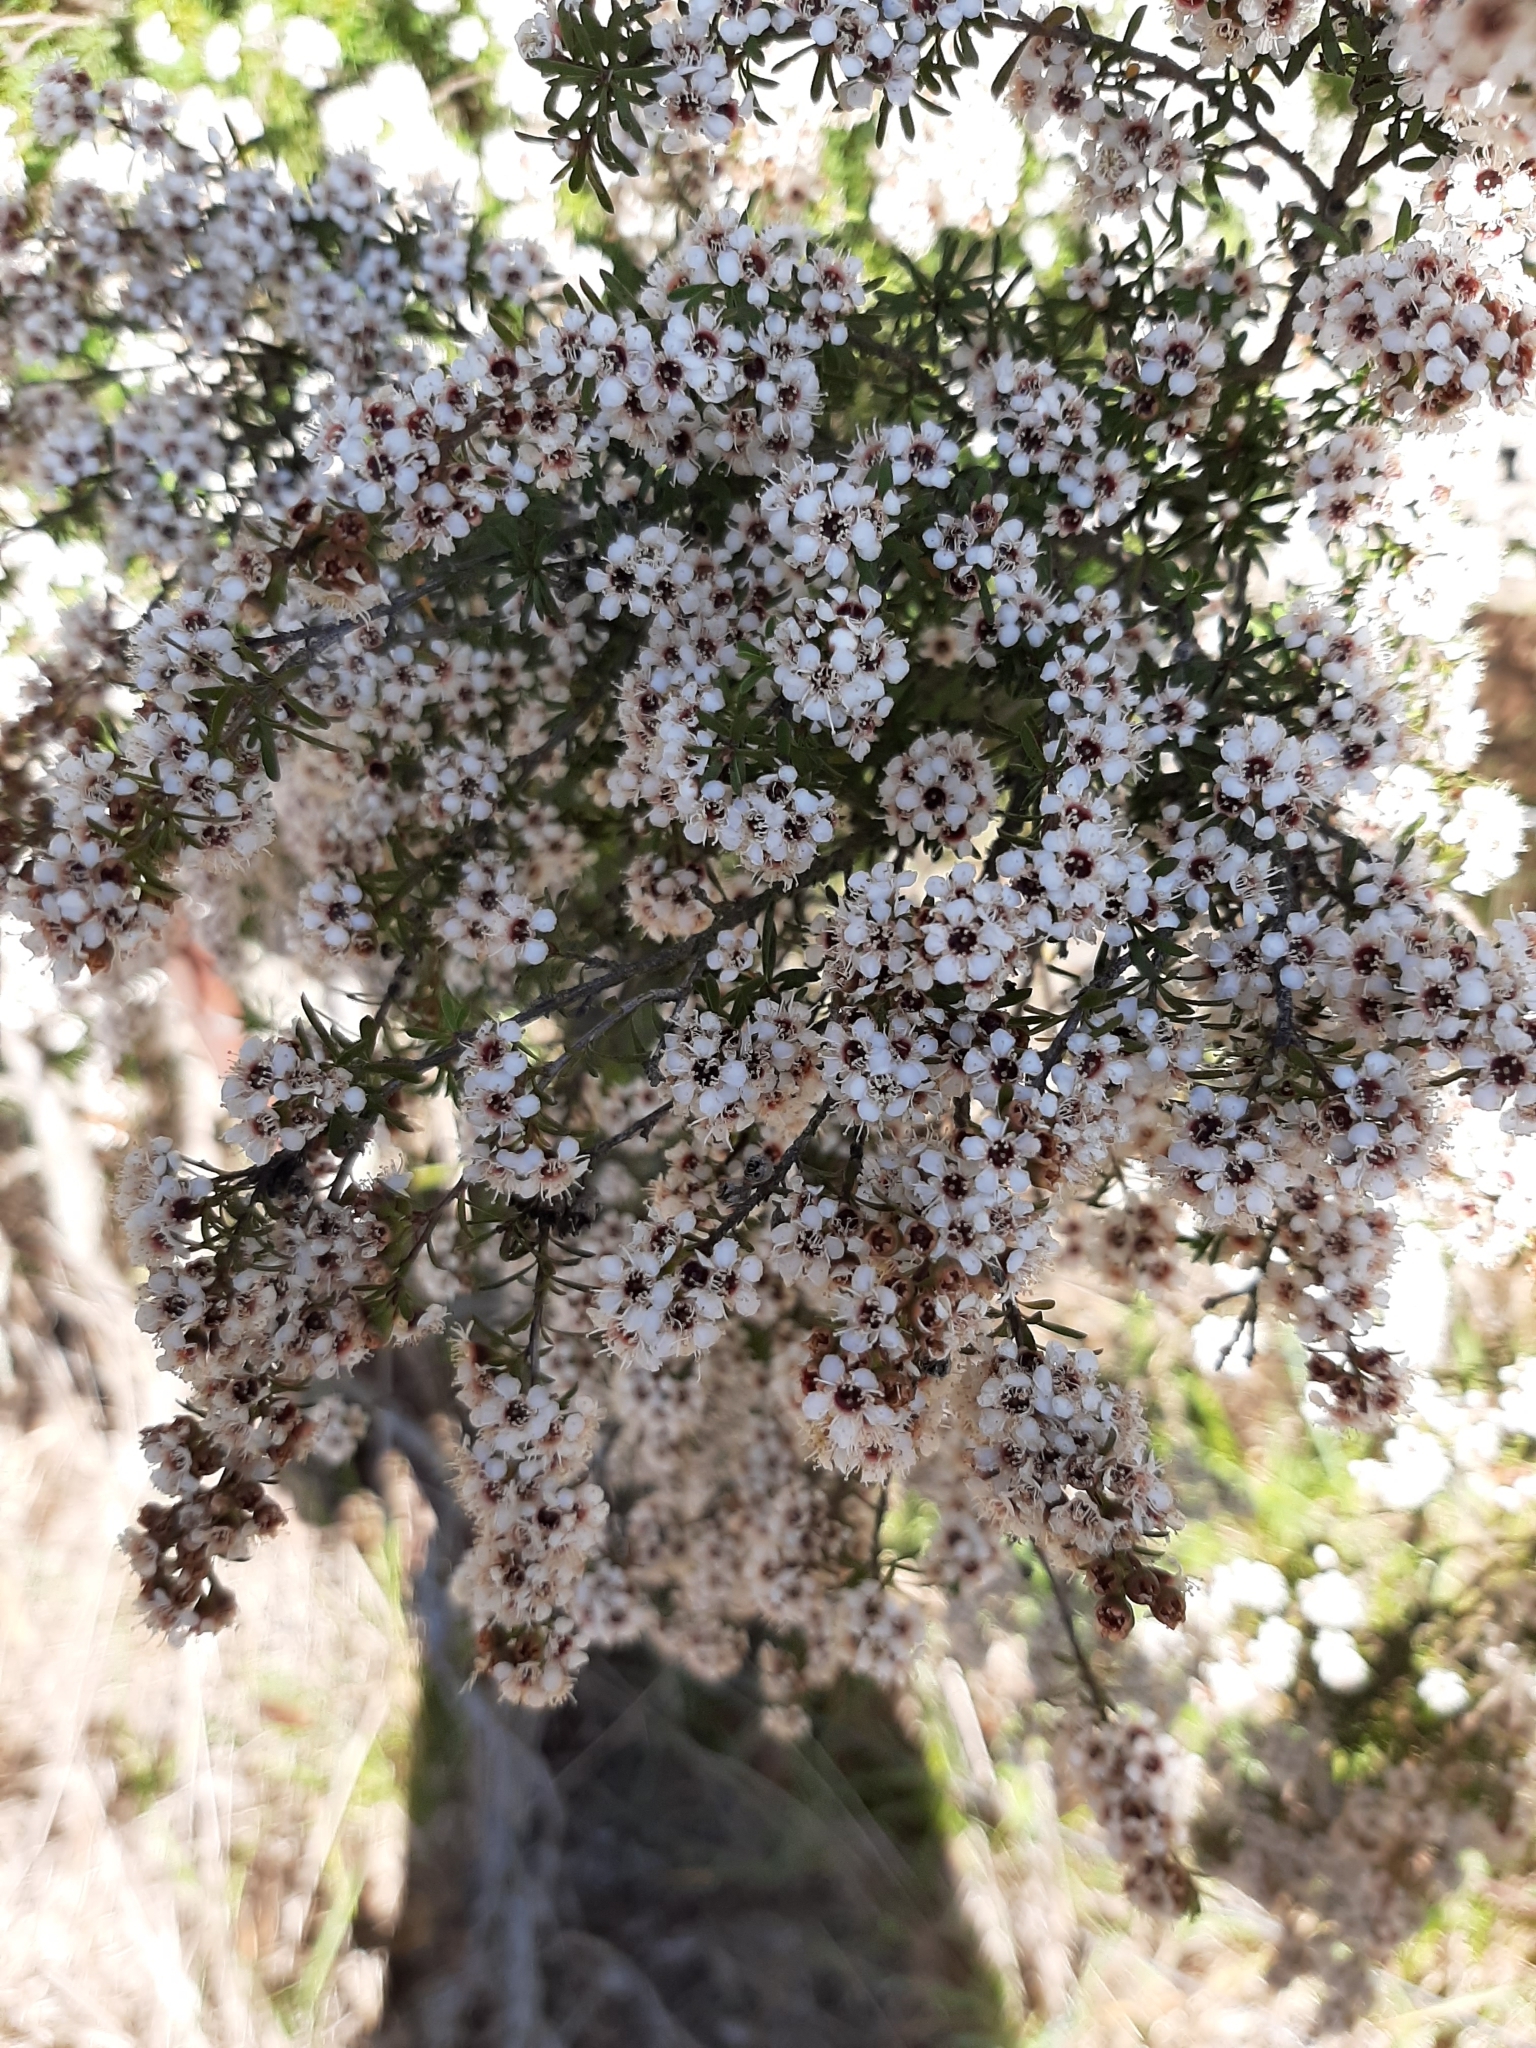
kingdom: Plantae
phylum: Tracheophyta
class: Magnoliopsida
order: Myrtales
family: Myrtaceae
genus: Kunzea
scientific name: Kunzea robusta
